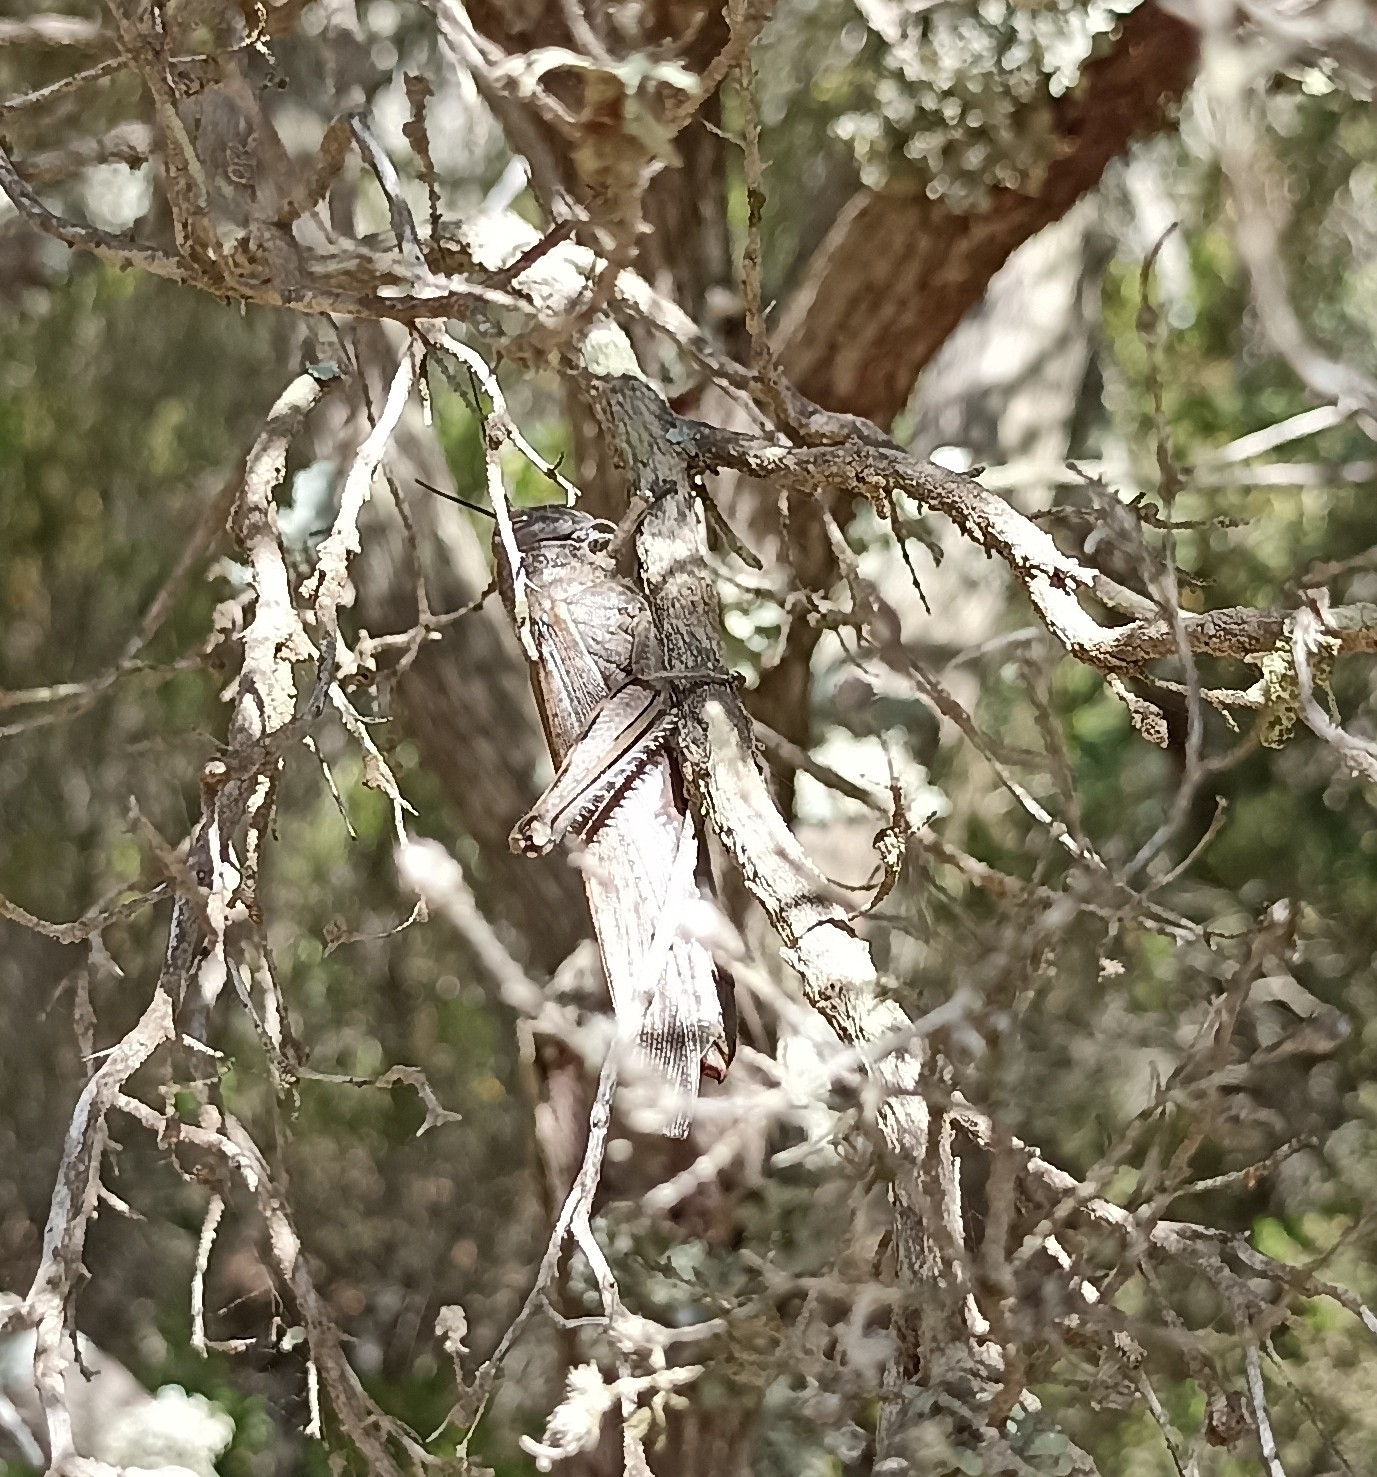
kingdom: Animalia
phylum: Arthropoda
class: Insecta
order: Orthoptera
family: Acrididae
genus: Anacridium
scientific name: Anacridium aegyptium
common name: Egyptian grasshopper
